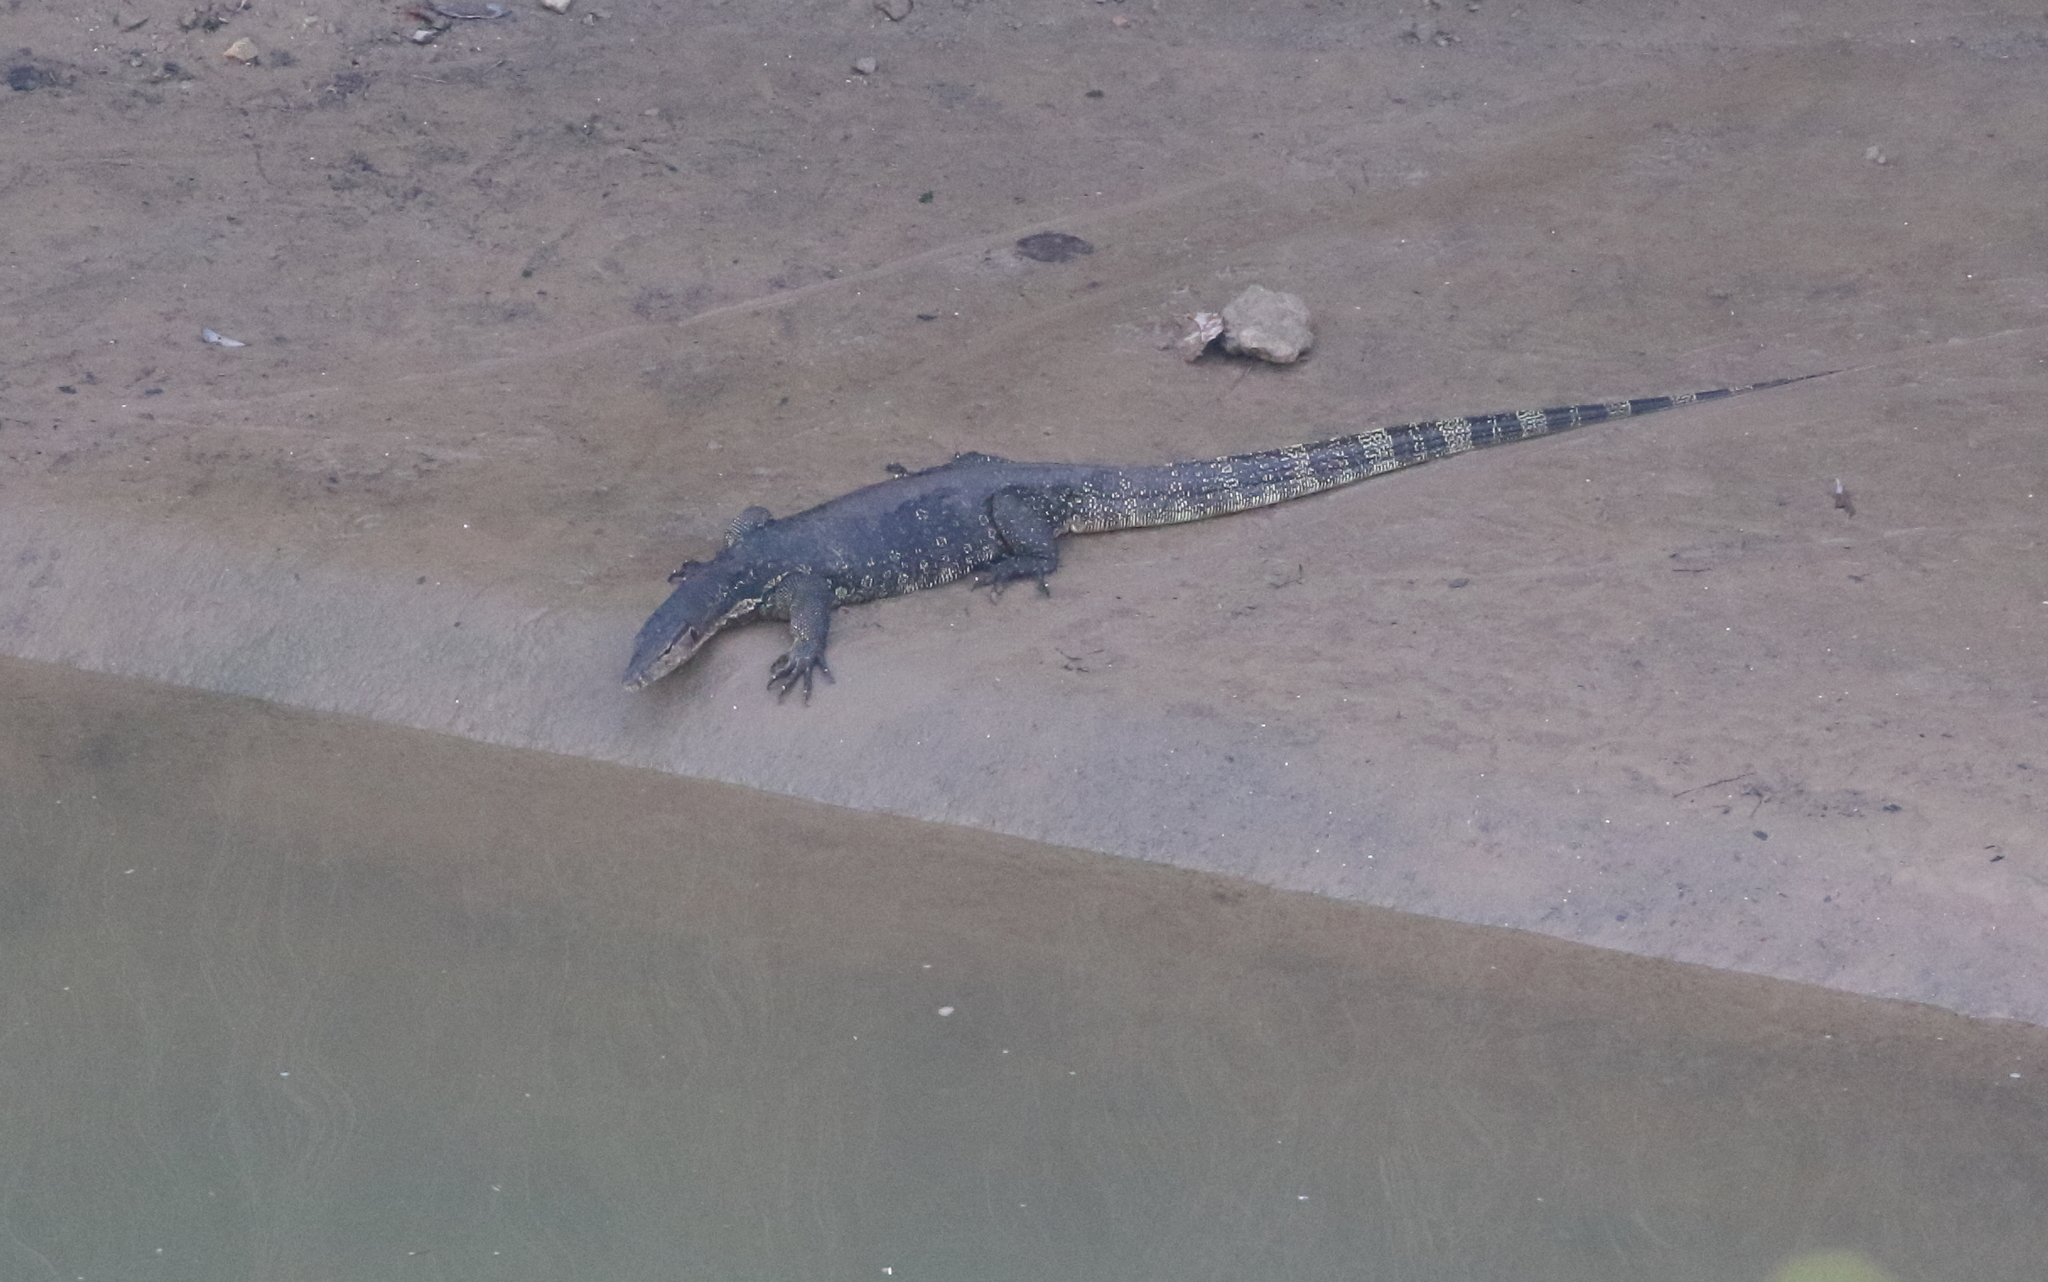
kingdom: Animalia
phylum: Chordata
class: Squamata
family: Varanidae
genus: Varanus
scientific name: Varanus salvator
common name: Common water monitor
